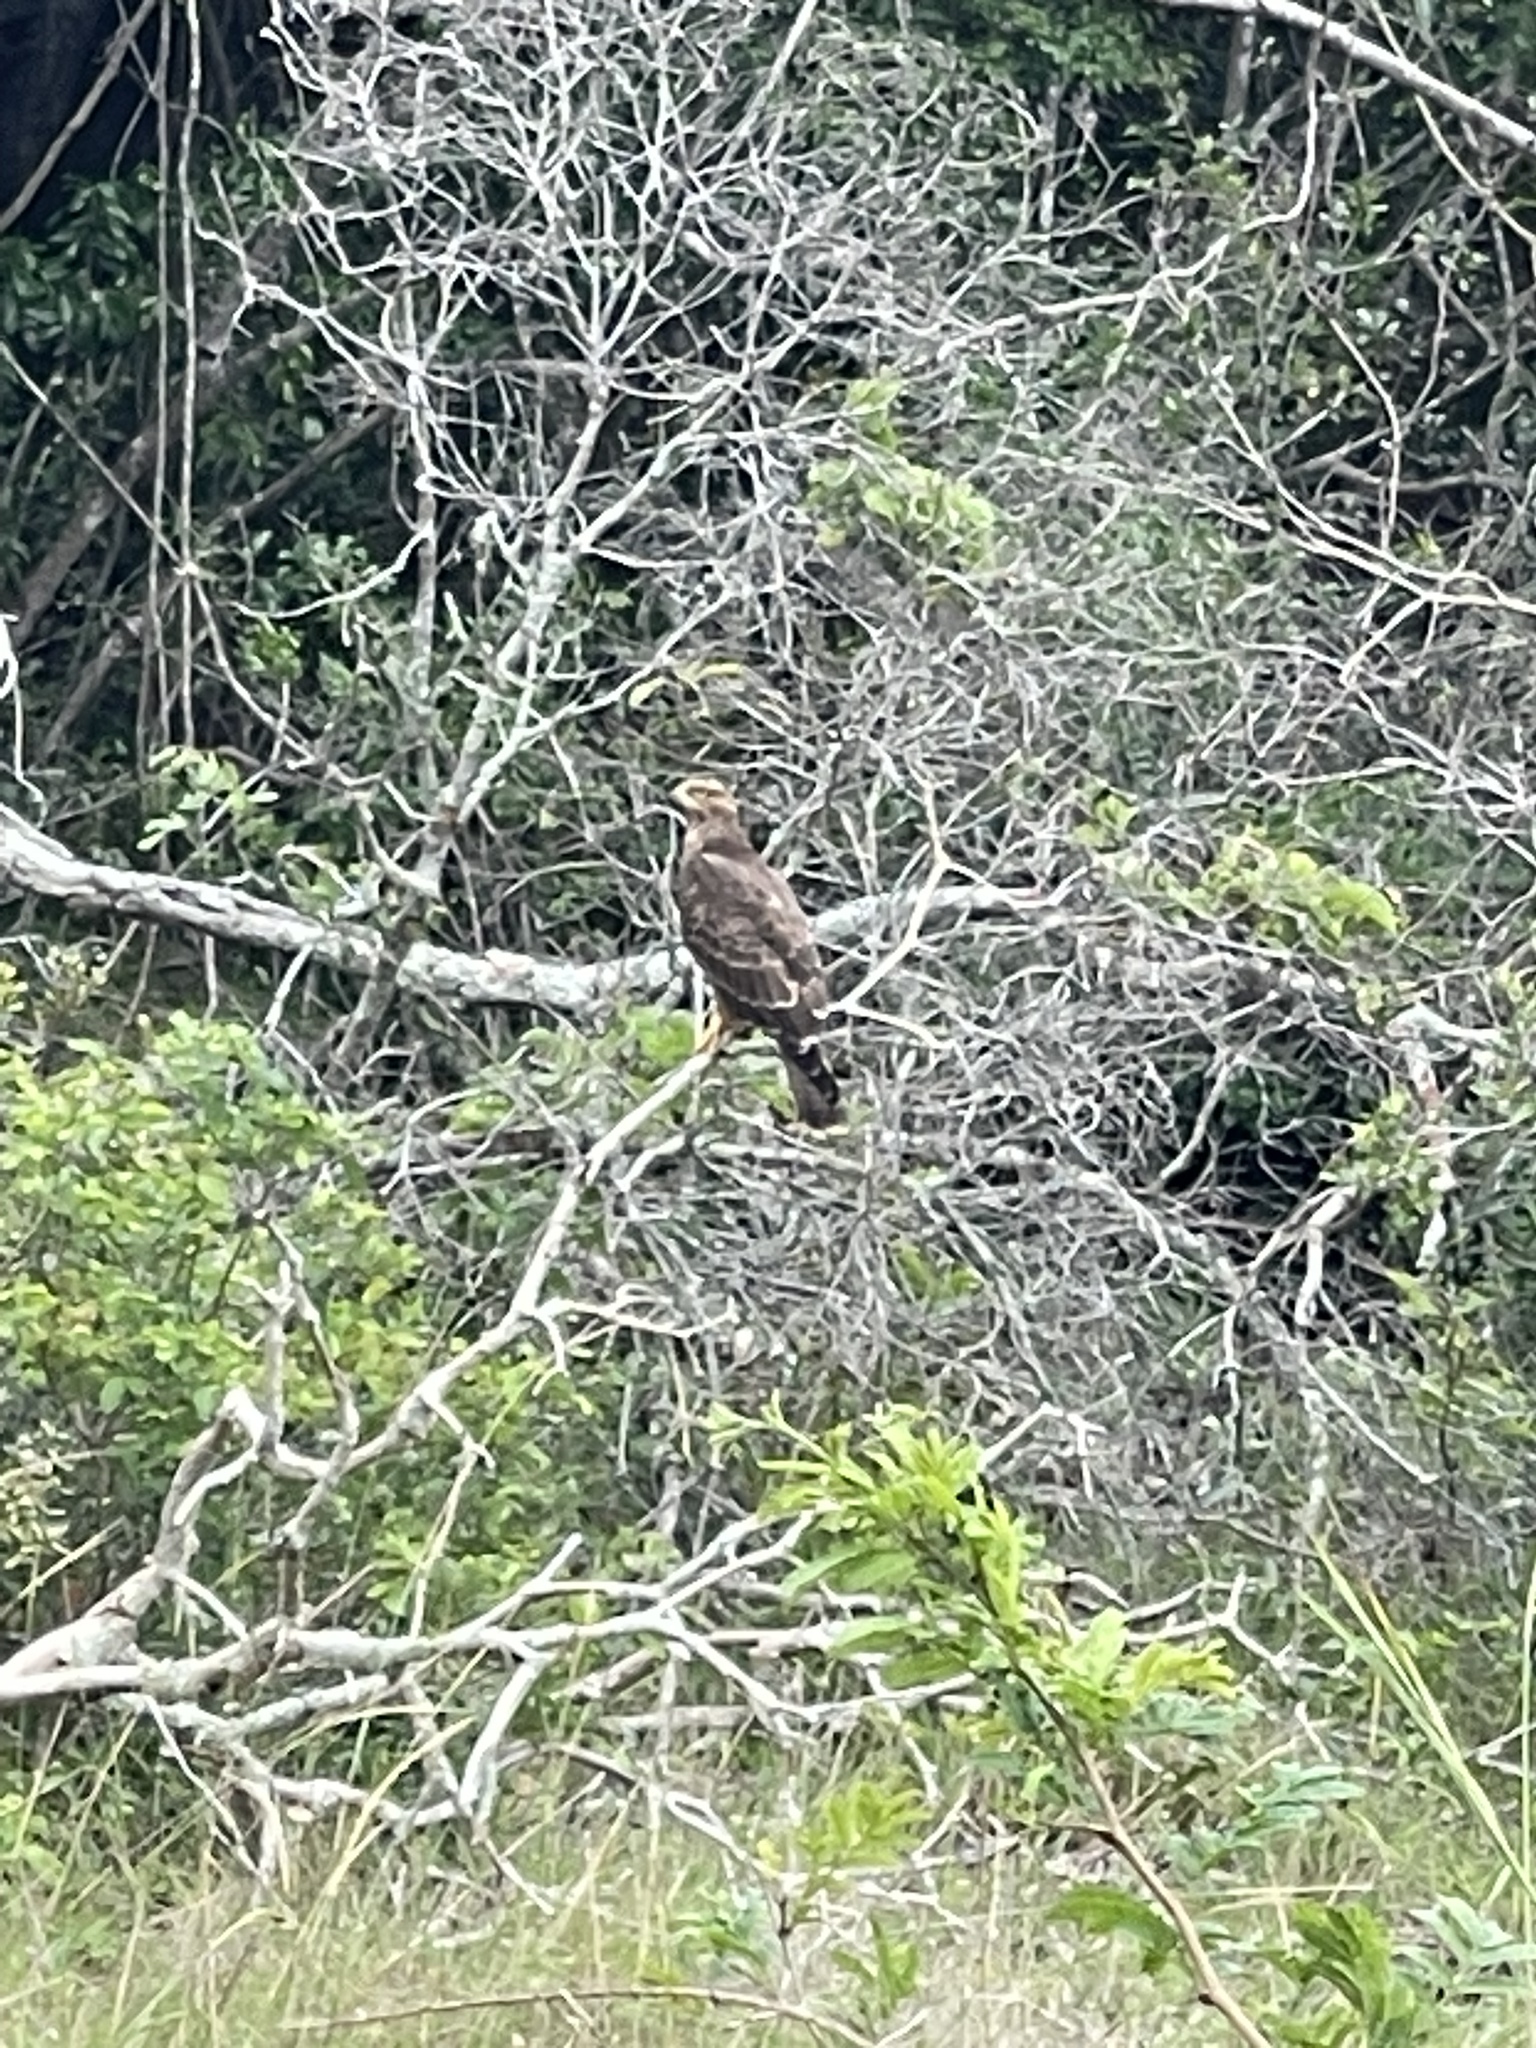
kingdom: Animalia
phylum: Chordata
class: Aves
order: Accipitriformes
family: Accipitridae
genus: Pernis
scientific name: Pernis apivorus
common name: European honey buzzard
